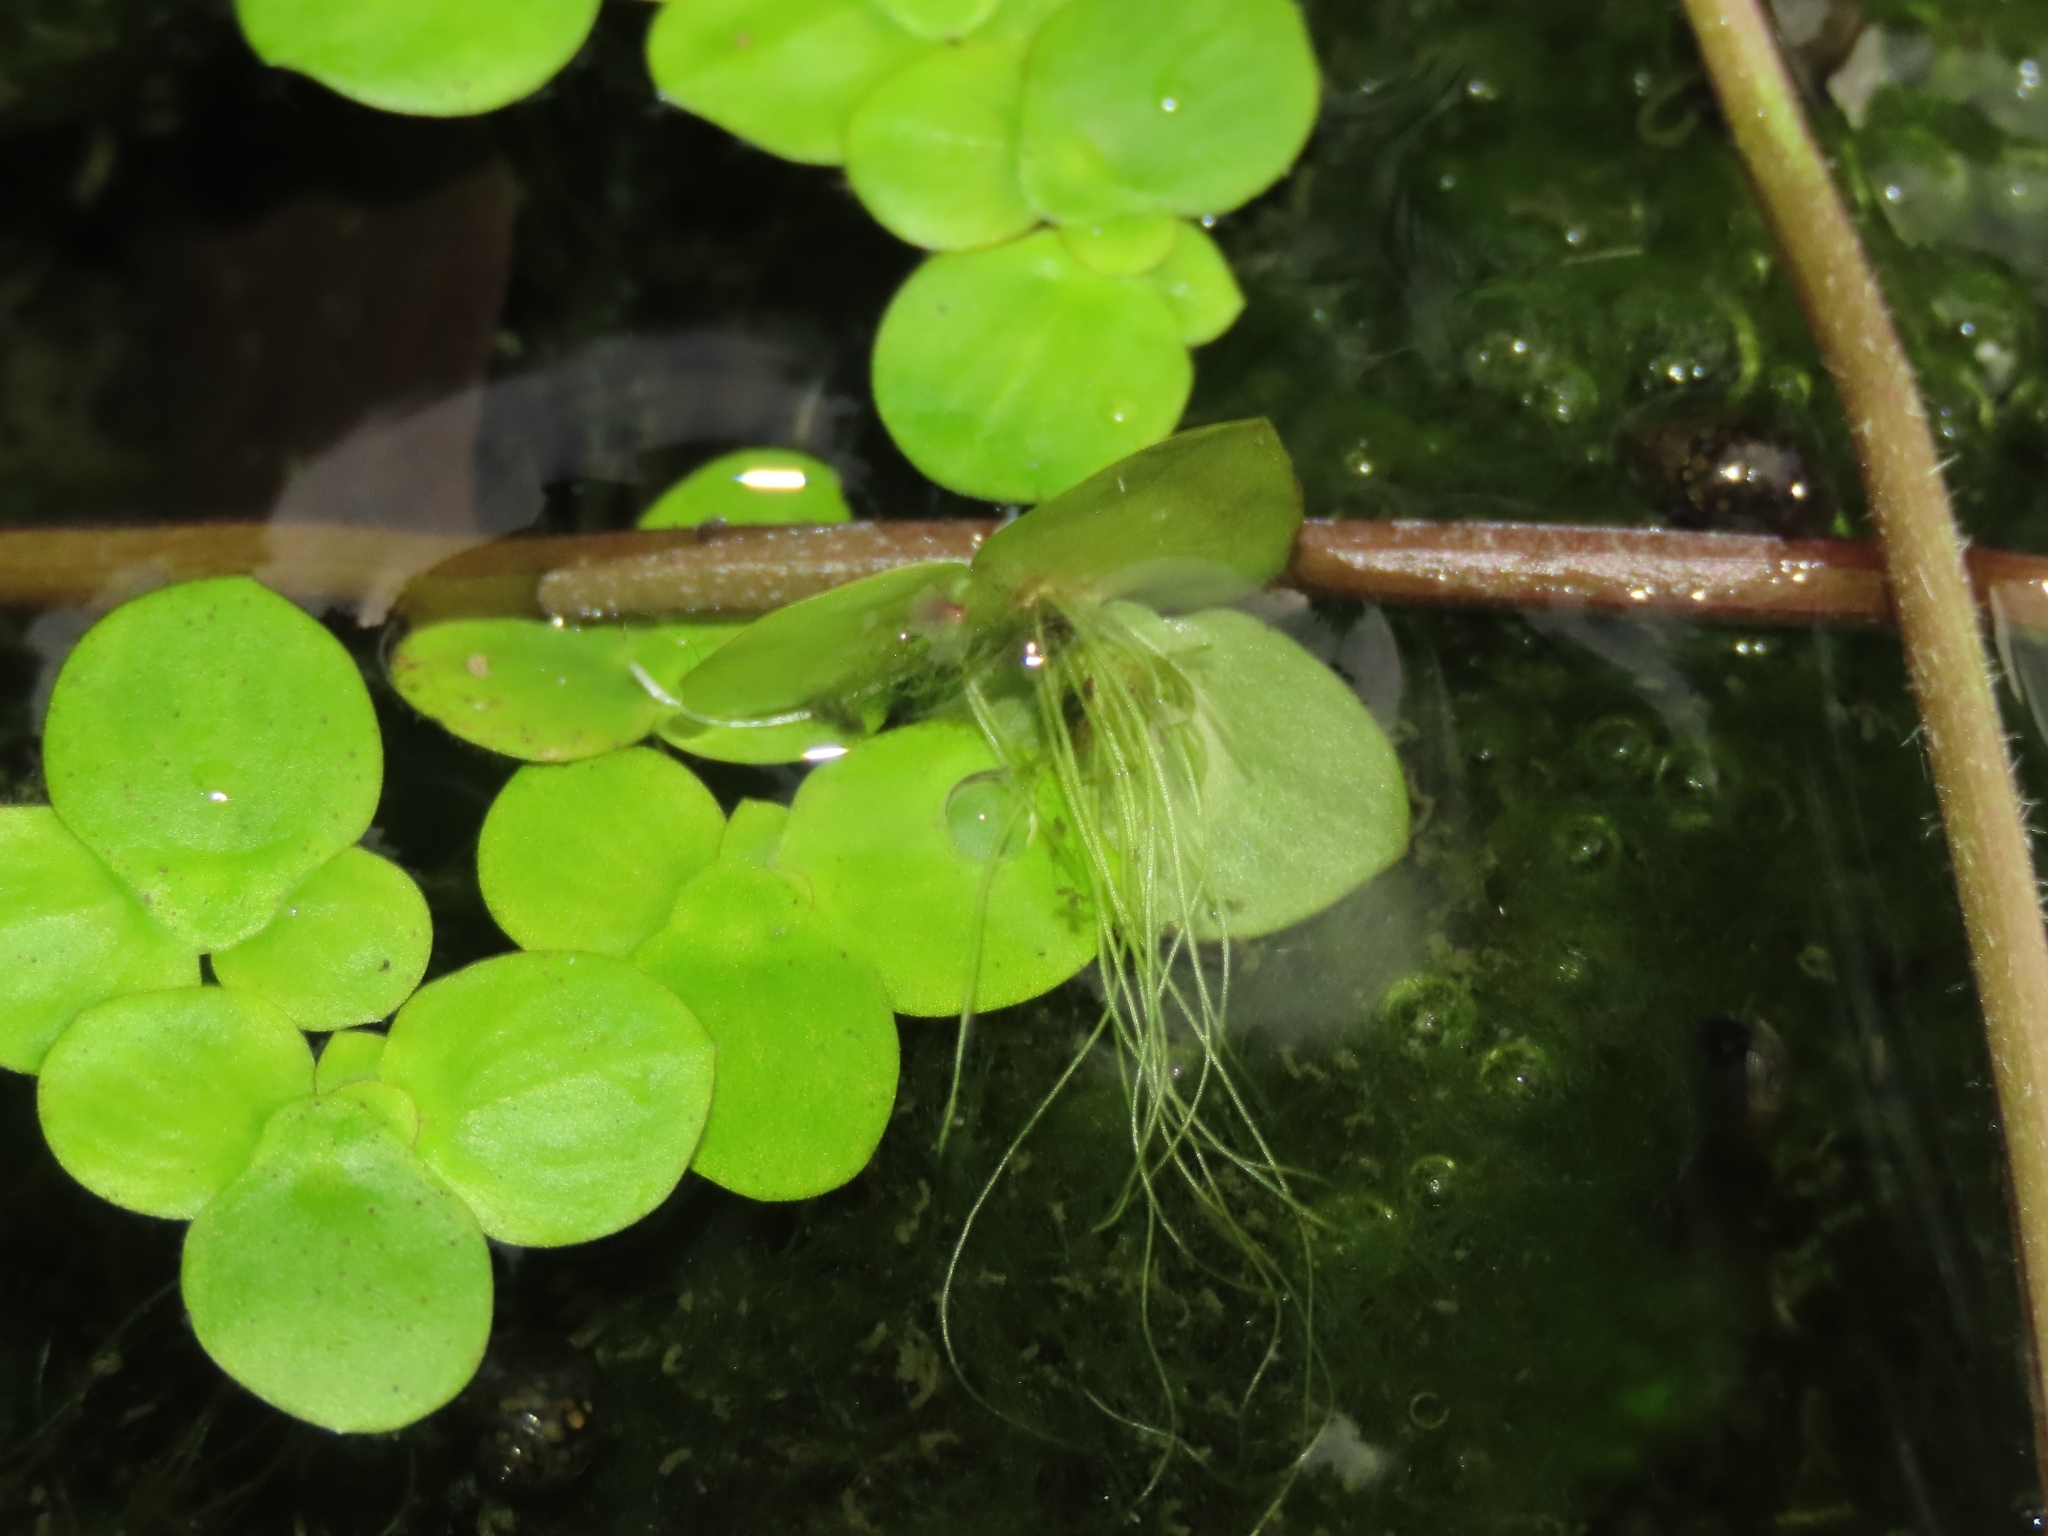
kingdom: Plantae
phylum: Tracheophyta
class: Liliopsida
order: Alismatales
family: Araceae
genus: Spirodela
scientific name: Spirodela polyrhiza
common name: Great duckweed
